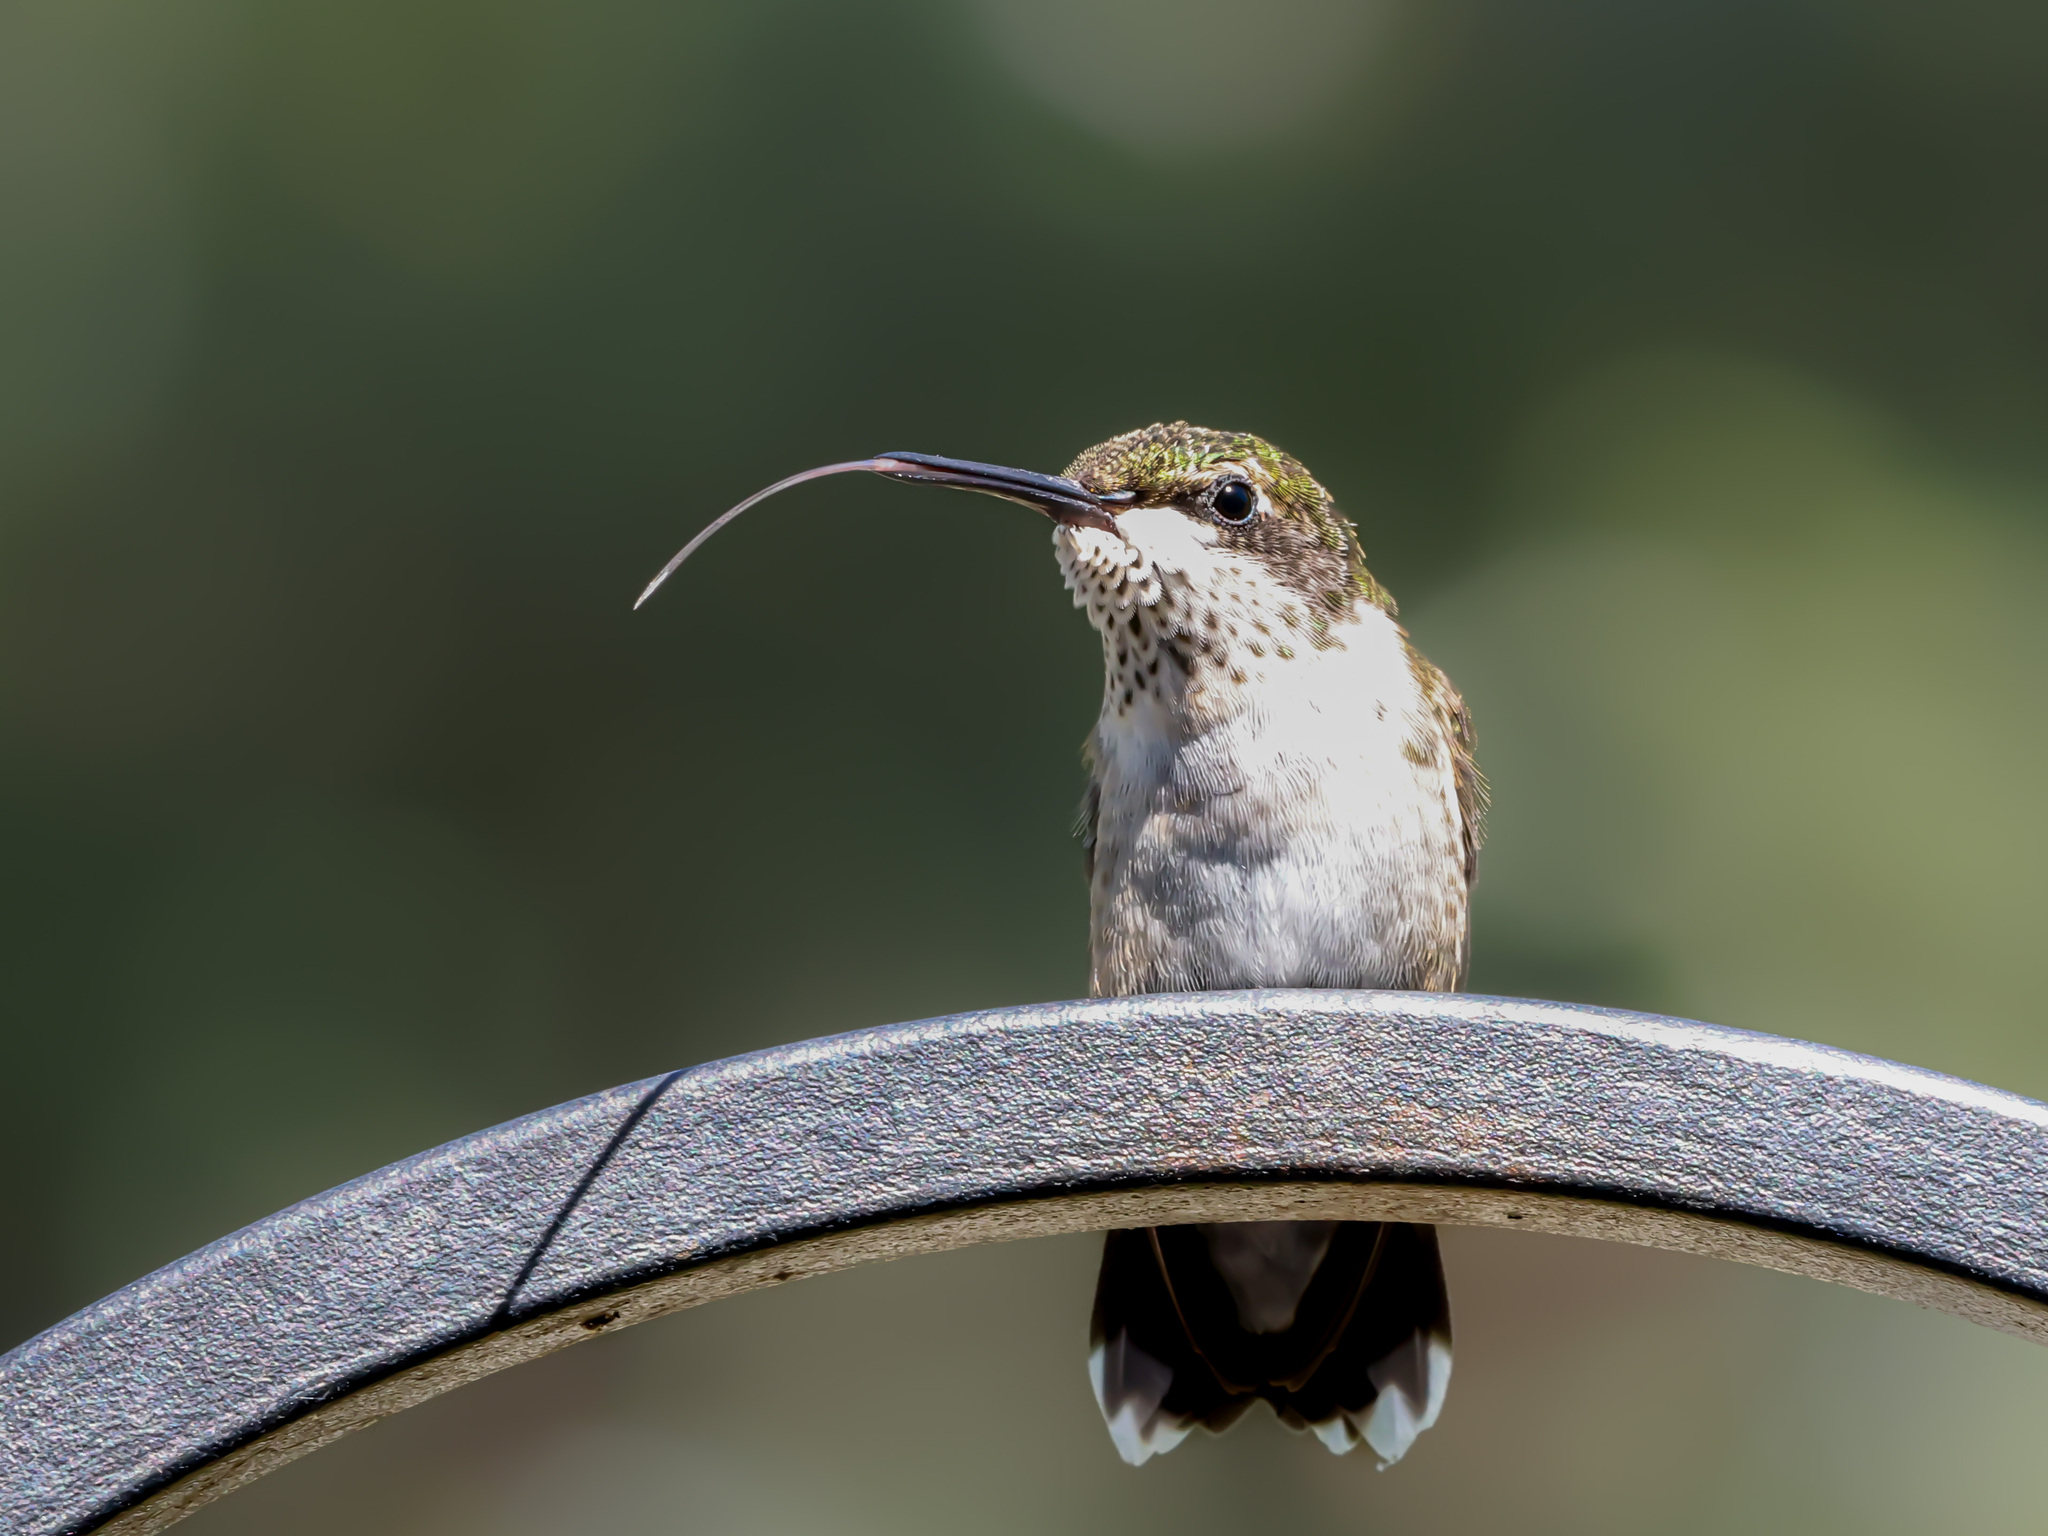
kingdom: Animalia
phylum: Chordata
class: Aves
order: Apodiformes
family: Trochilidae
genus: Archilochus
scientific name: Archilochus colubris
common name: Ruby-throated hummingbird
